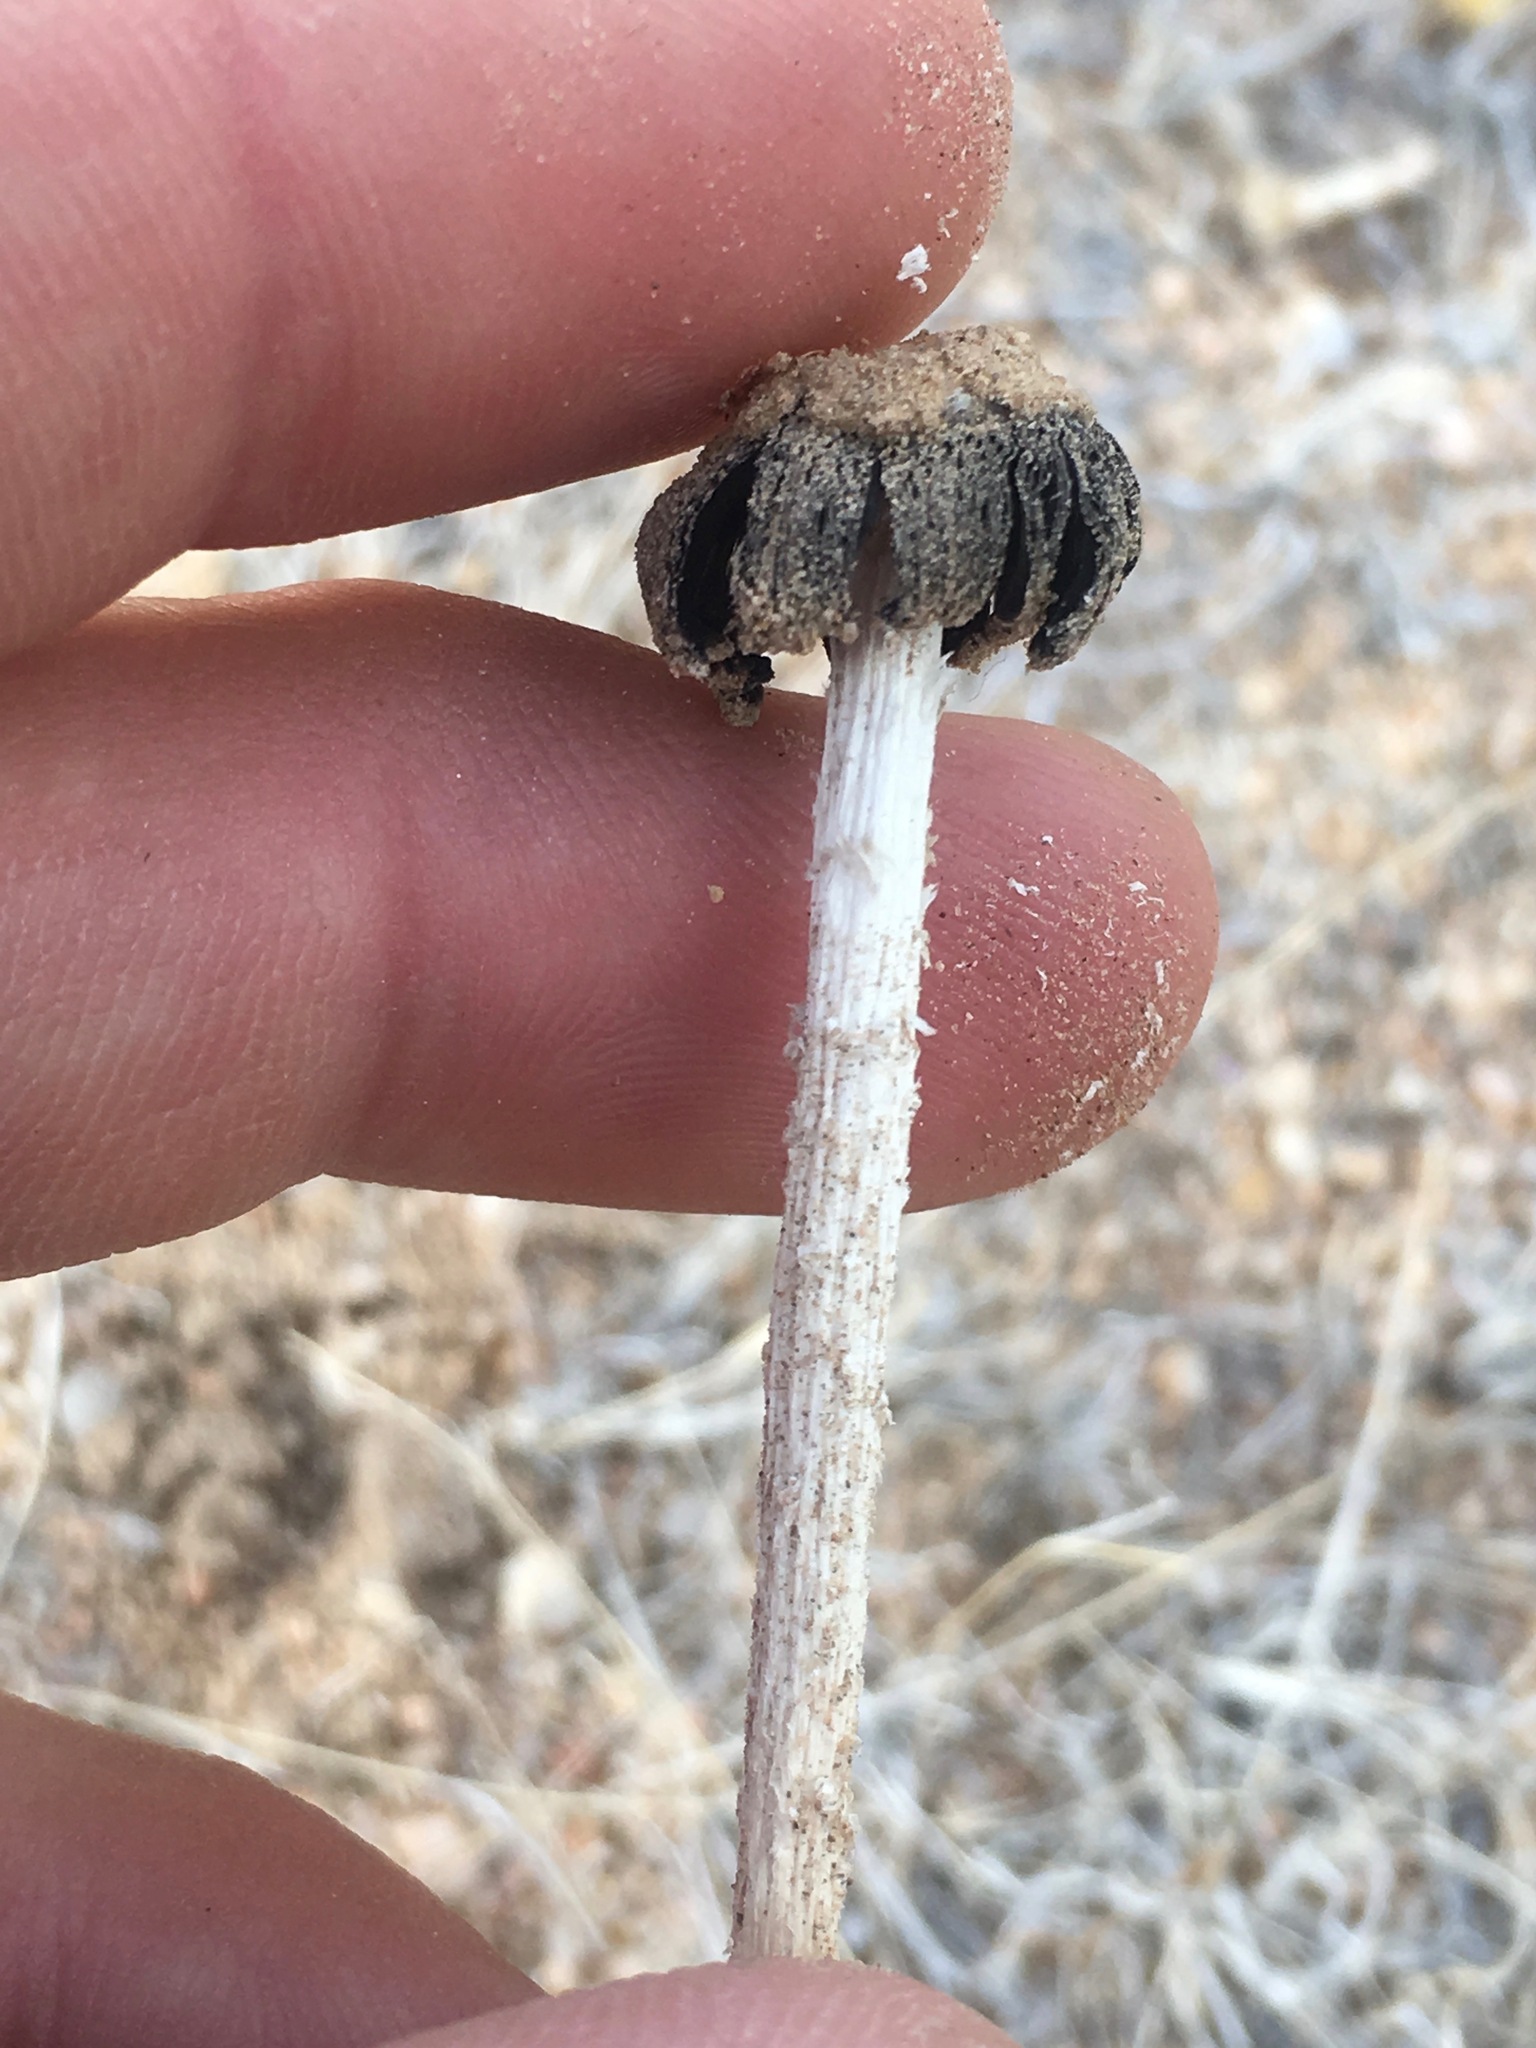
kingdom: Fungi
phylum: Basidiomycota
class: Agaricomycetes
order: Agaricales
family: Agaricaceae
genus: Montagnea
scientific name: Montagnea arenaria
